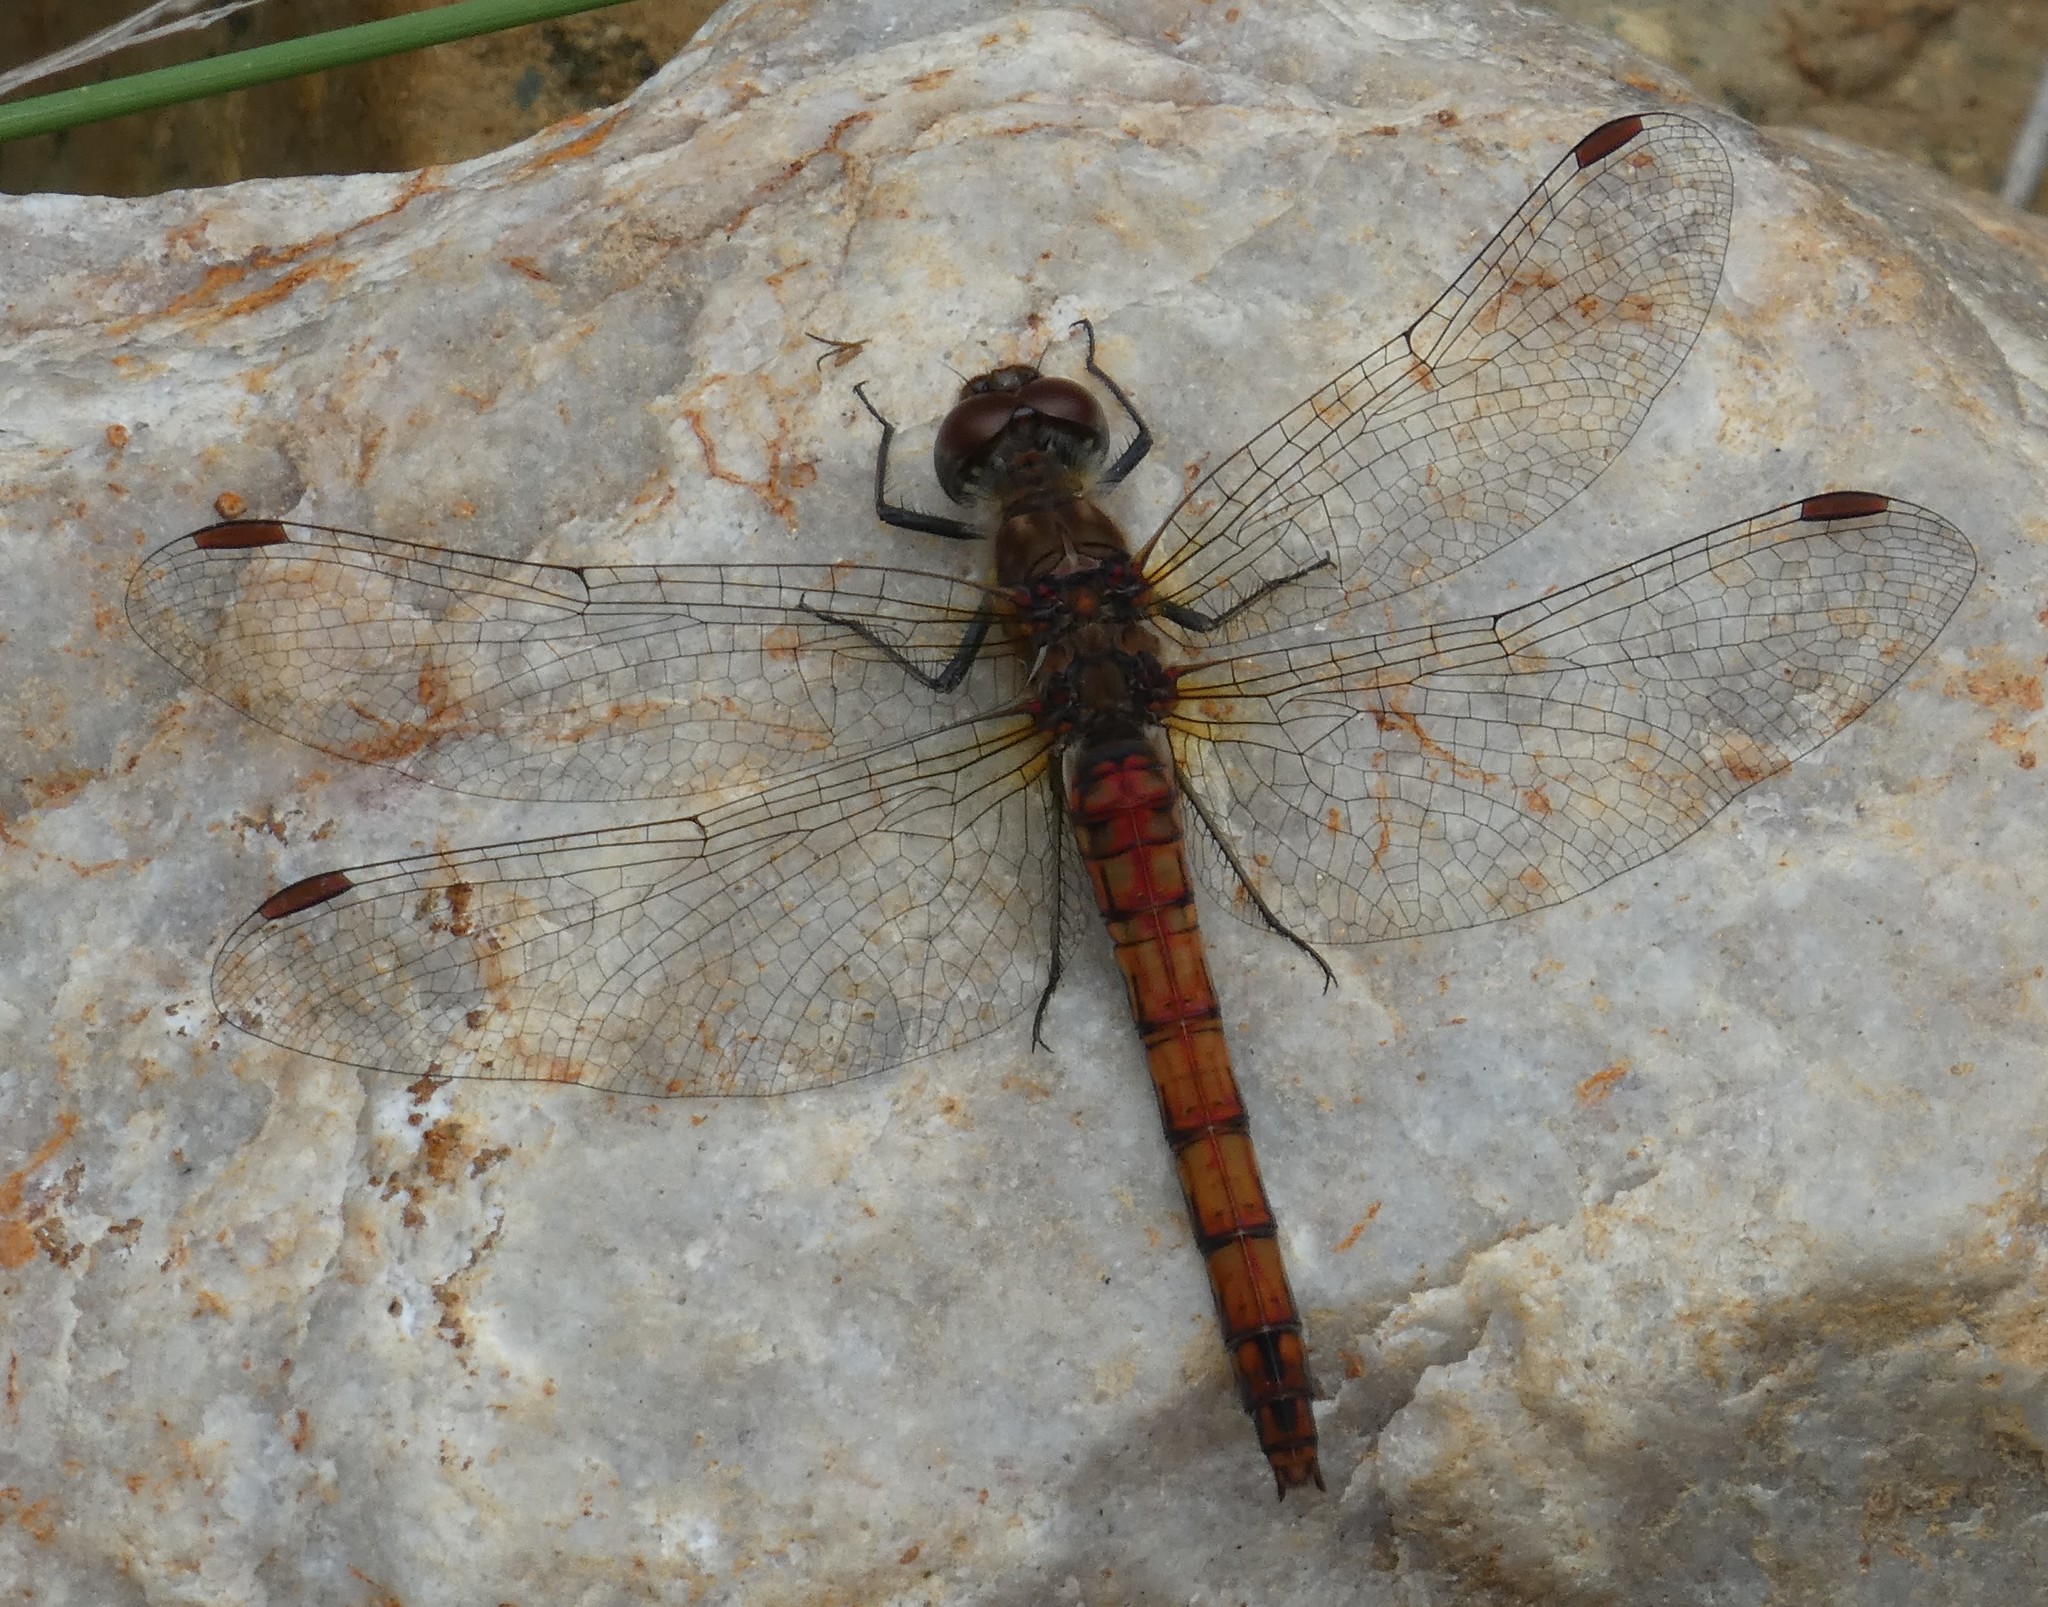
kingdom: Animalia
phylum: Arthropoda
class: Insecta
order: Odonata
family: Libellulidae
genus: Sympetrum
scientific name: Sympetrum striolatum
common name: Common darter
